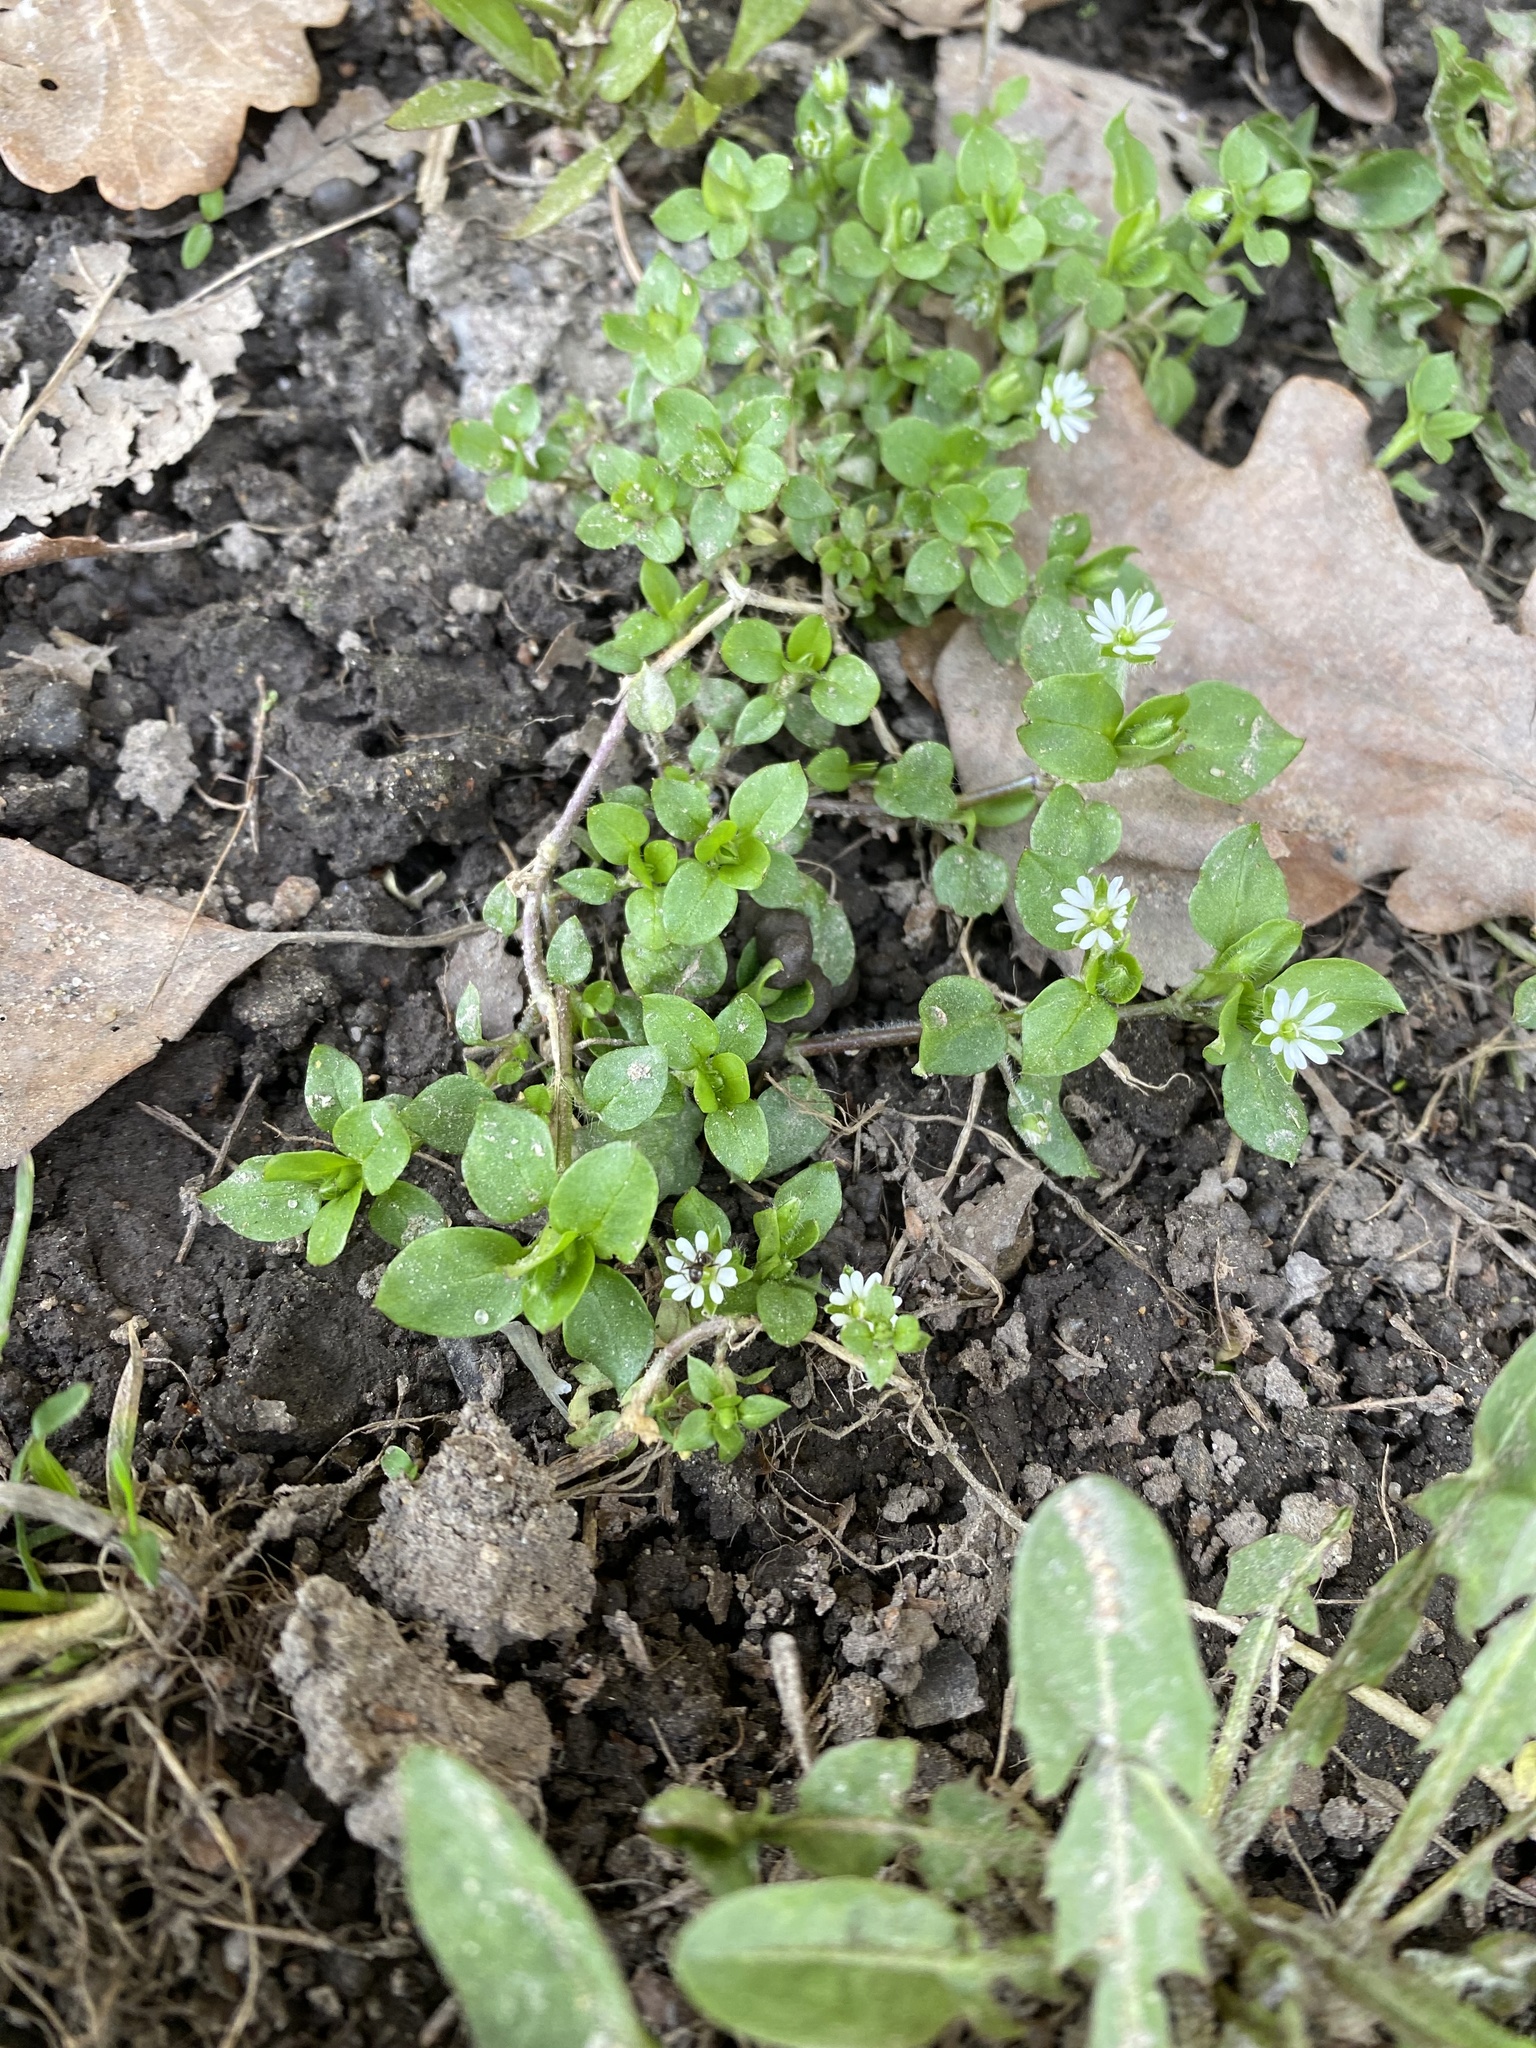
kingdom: Plantae
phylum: Tracheophyta
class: Magnoliopsida
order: Caryophyllales
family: Caryophyllaceae
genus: Stellaria
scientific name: Stellaria media
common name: Common chickweed
